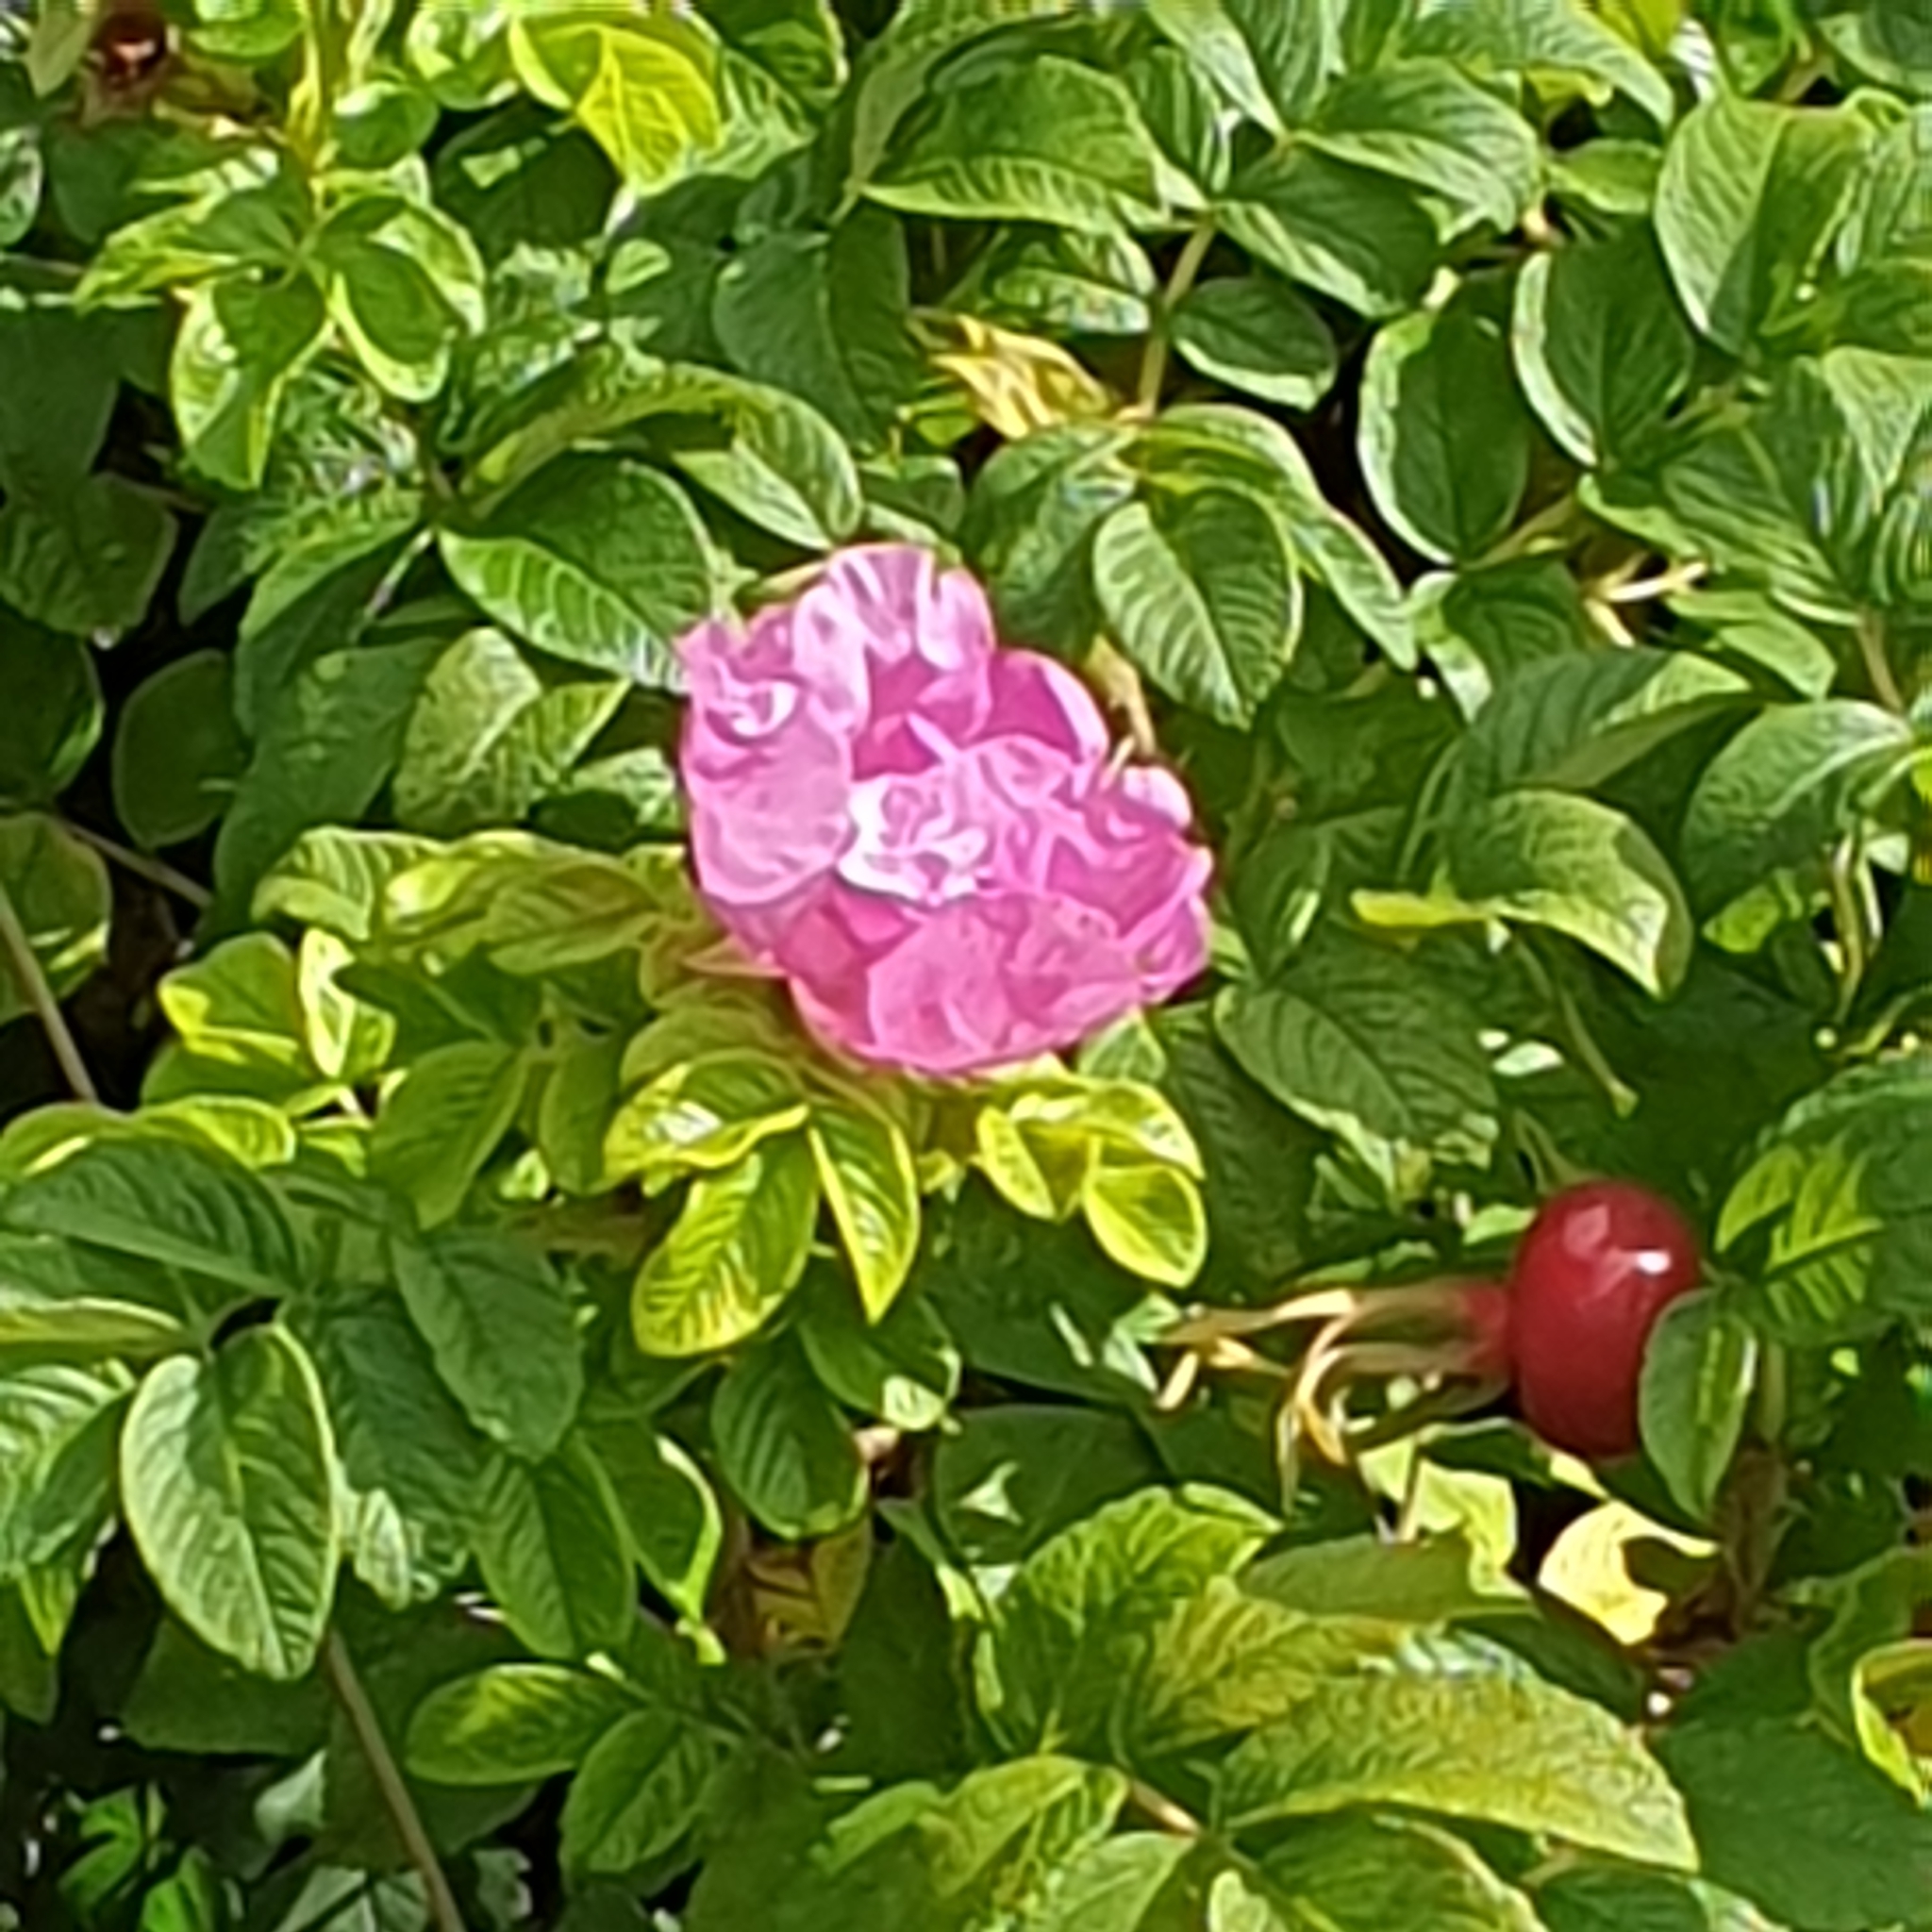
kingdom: Plantae
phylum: Tracheophyta
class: Magnoliopsida
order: Rosales
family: Rosaceae
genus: Rosa
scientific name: Rosa rugosa
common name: Japanese rose
